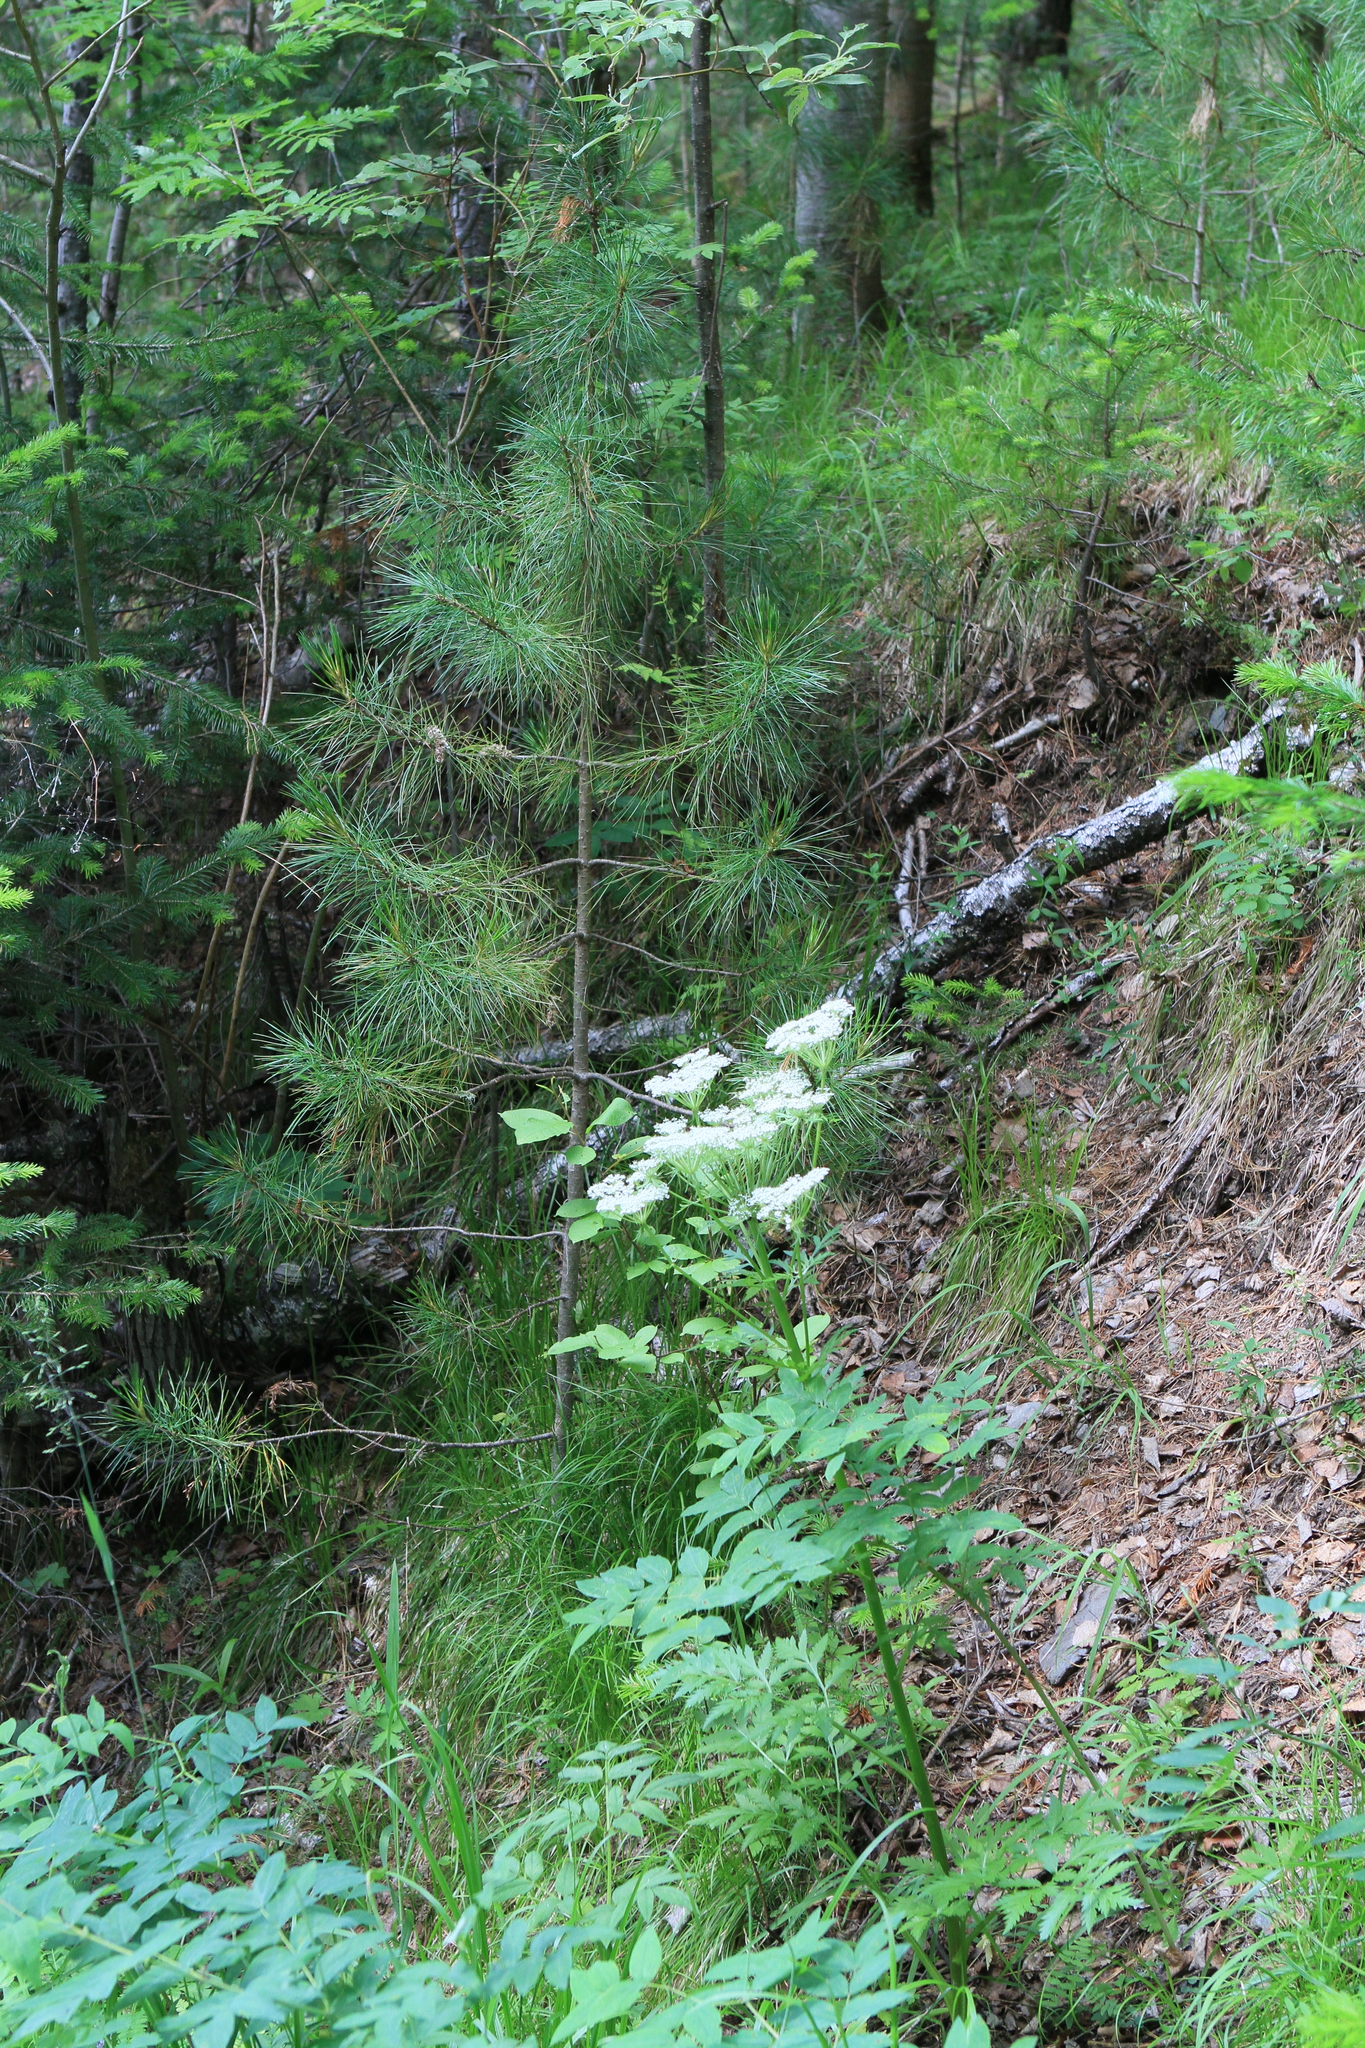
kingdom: Plantae
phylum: Tracheophyta
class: Pinopsida
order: Pinales
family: Pinaceae
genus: Pinus
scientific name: Pinus sibirica
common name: Siberian pine
